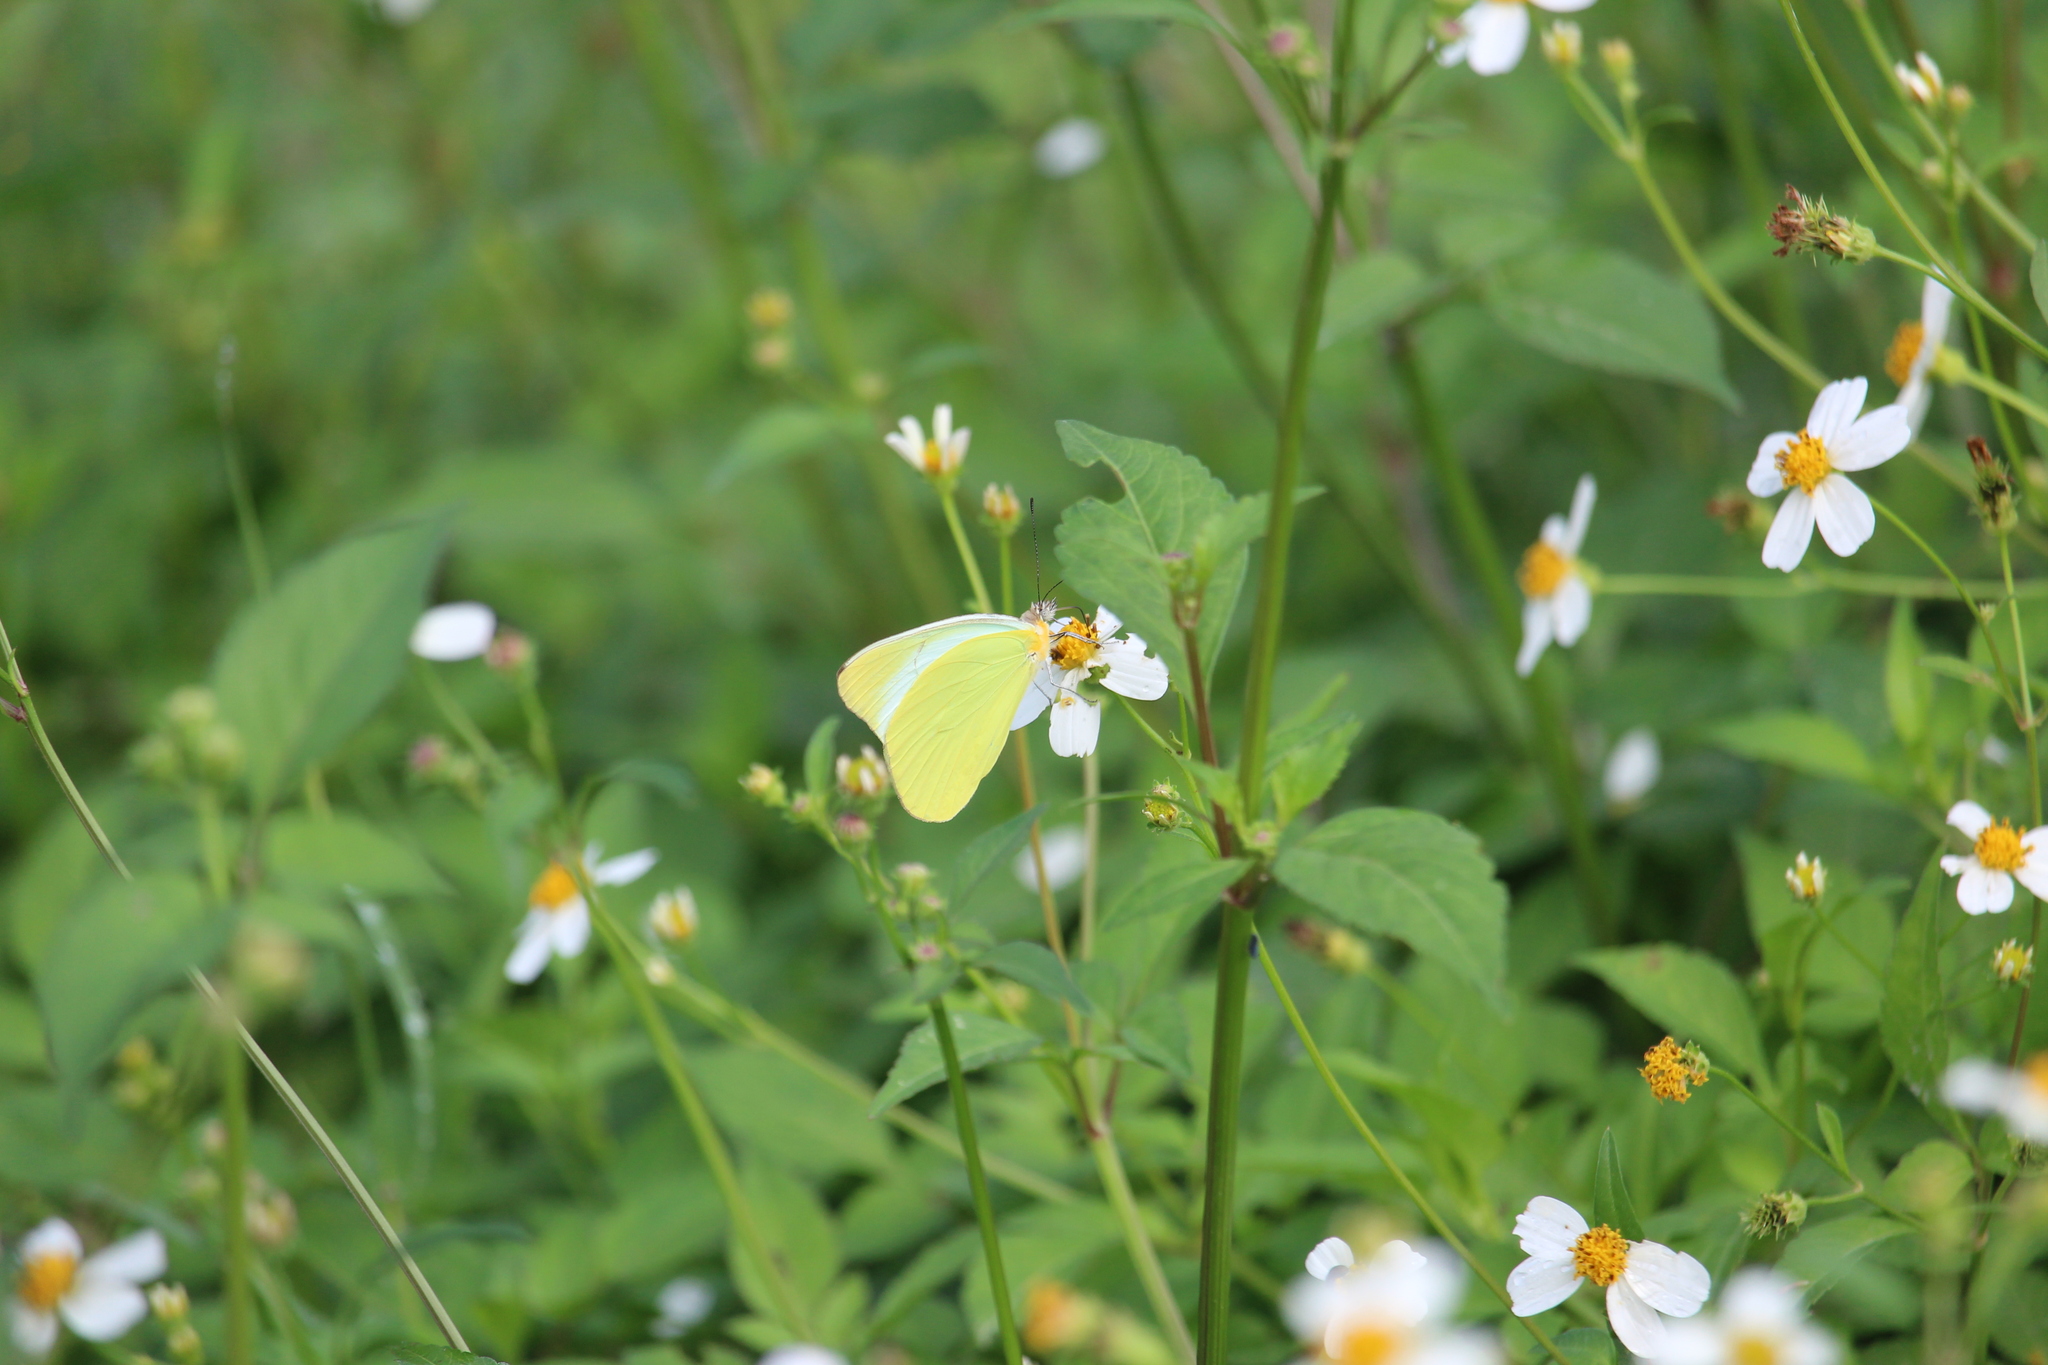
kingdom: Animalia
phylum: Arthropoda
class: Insecta
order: Lepidoptera
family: Pieridae
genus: Melete
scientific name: Melete lycimnia
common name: Common melwhite
